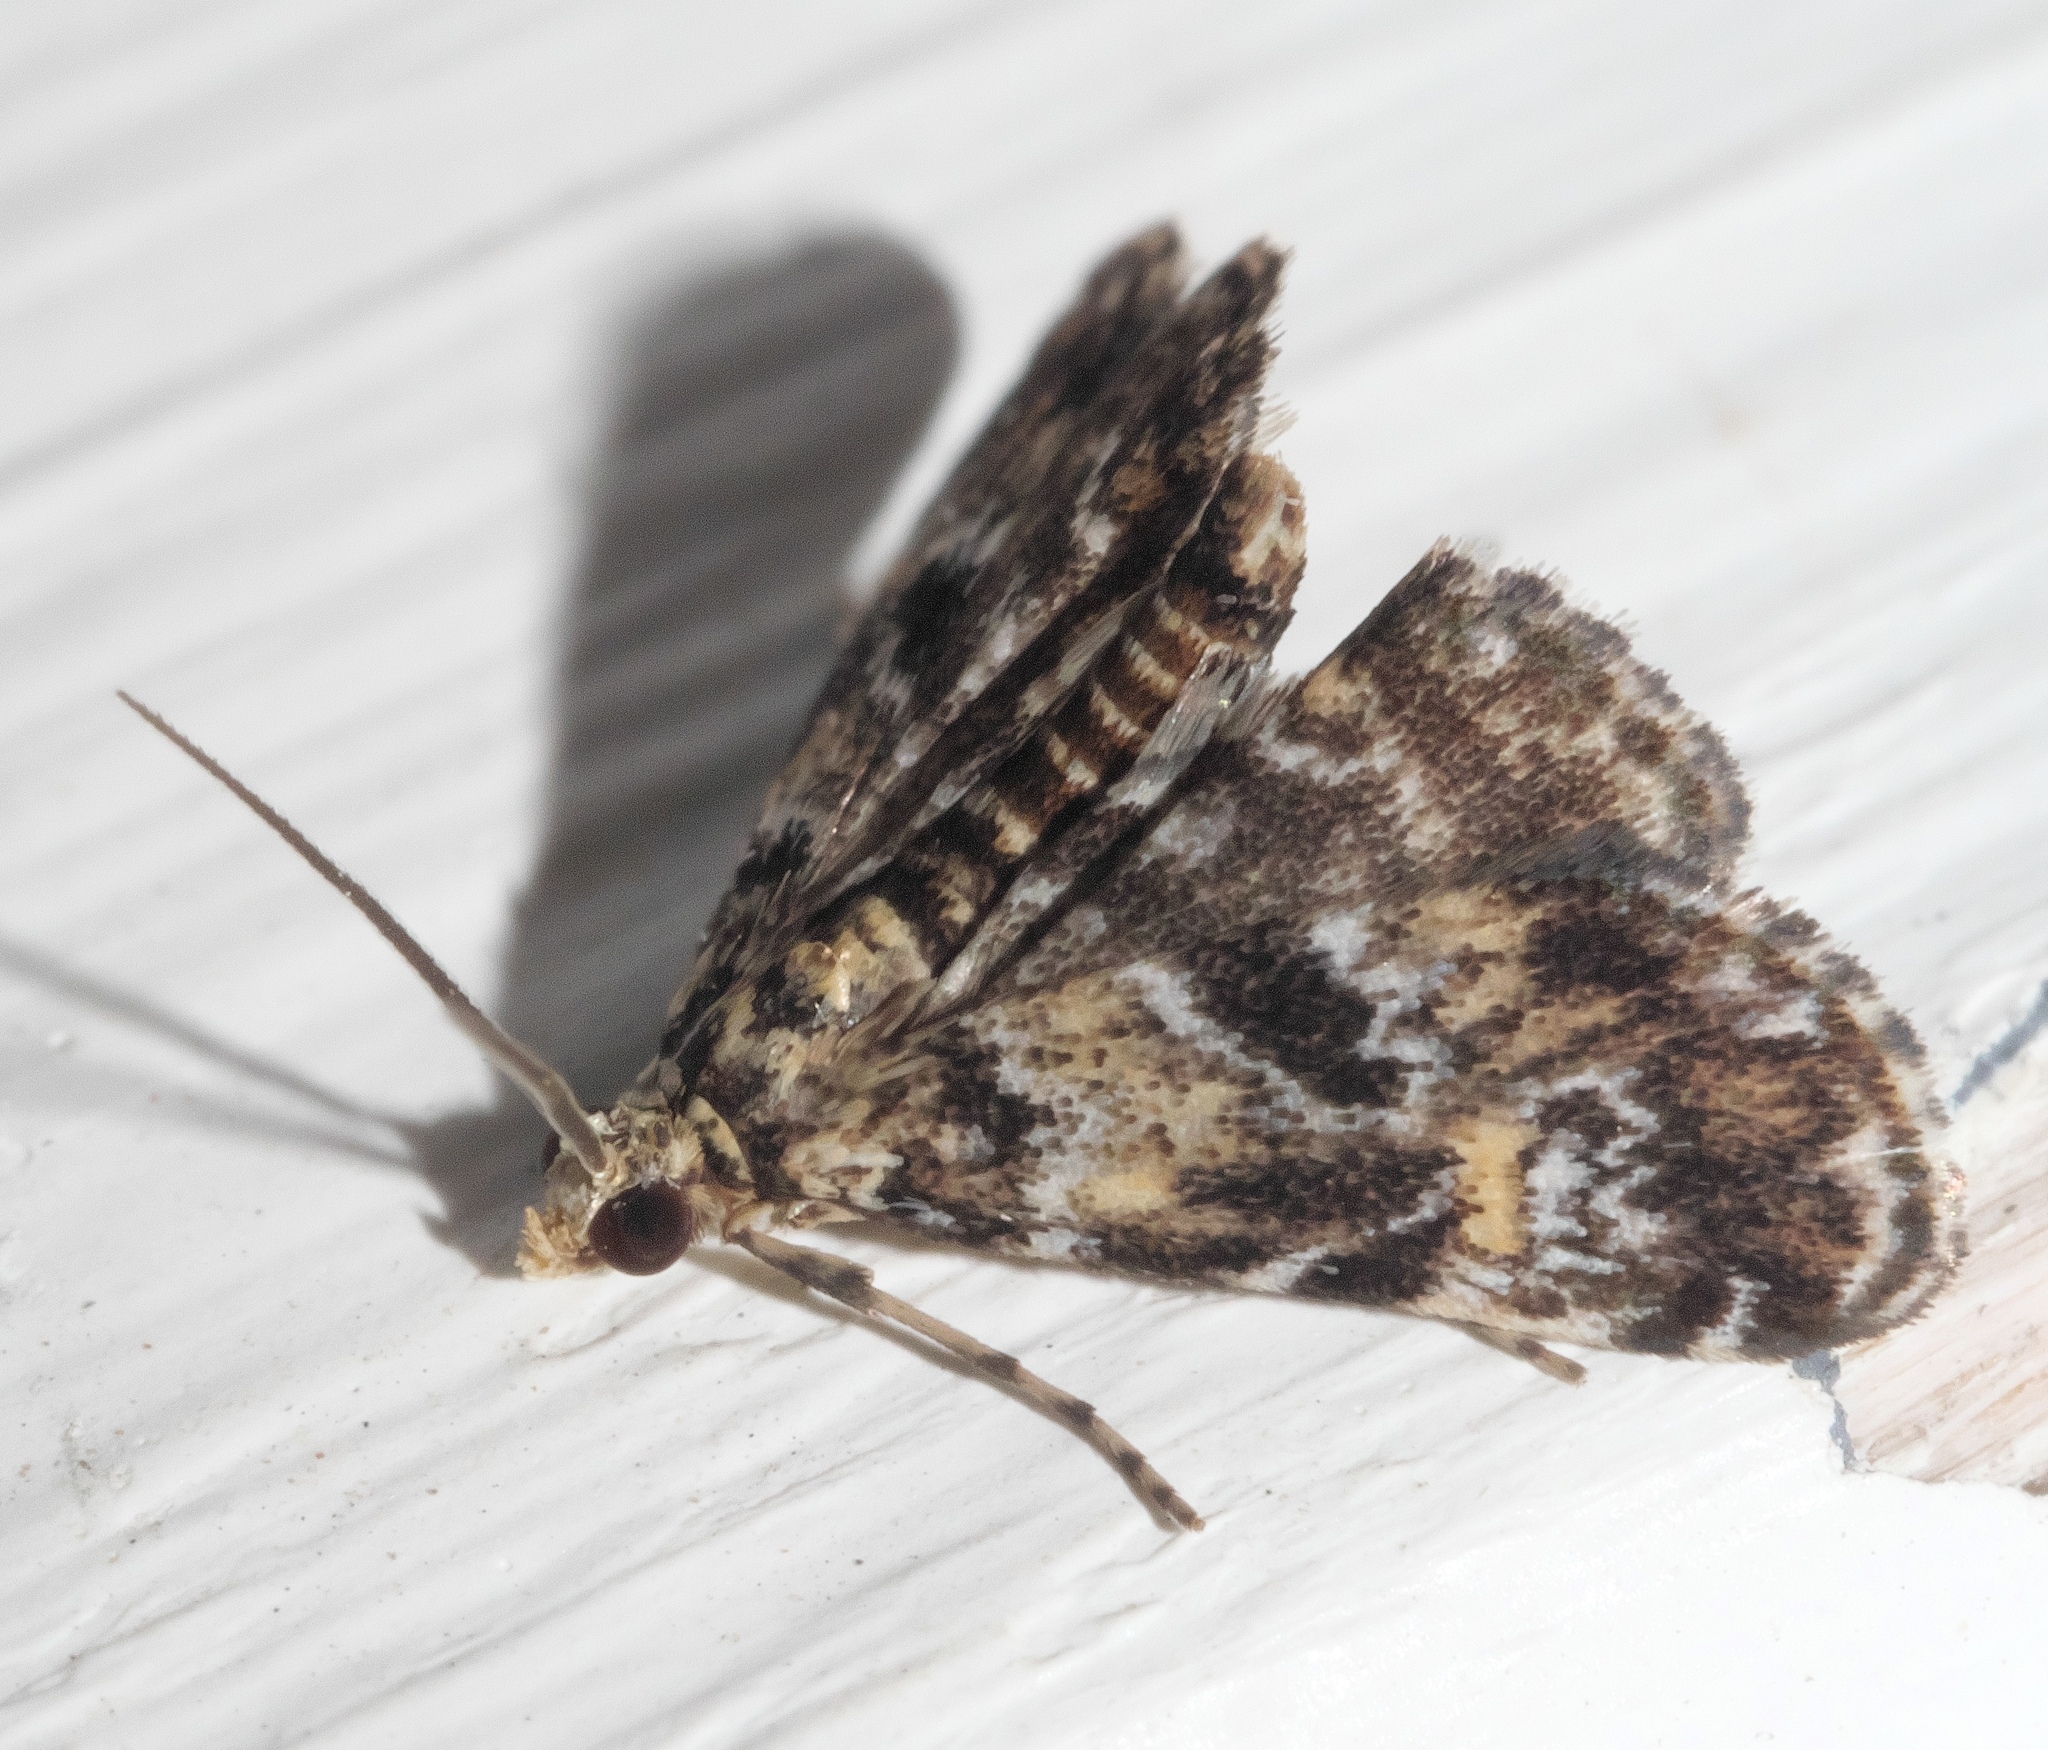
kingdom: Animalia
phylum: Arthropoda
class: Insecta
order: Lepidoptera
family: Crambidae
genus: Elophila
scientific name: Elophila obliteralis
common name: Waterlily leafcutter moth
